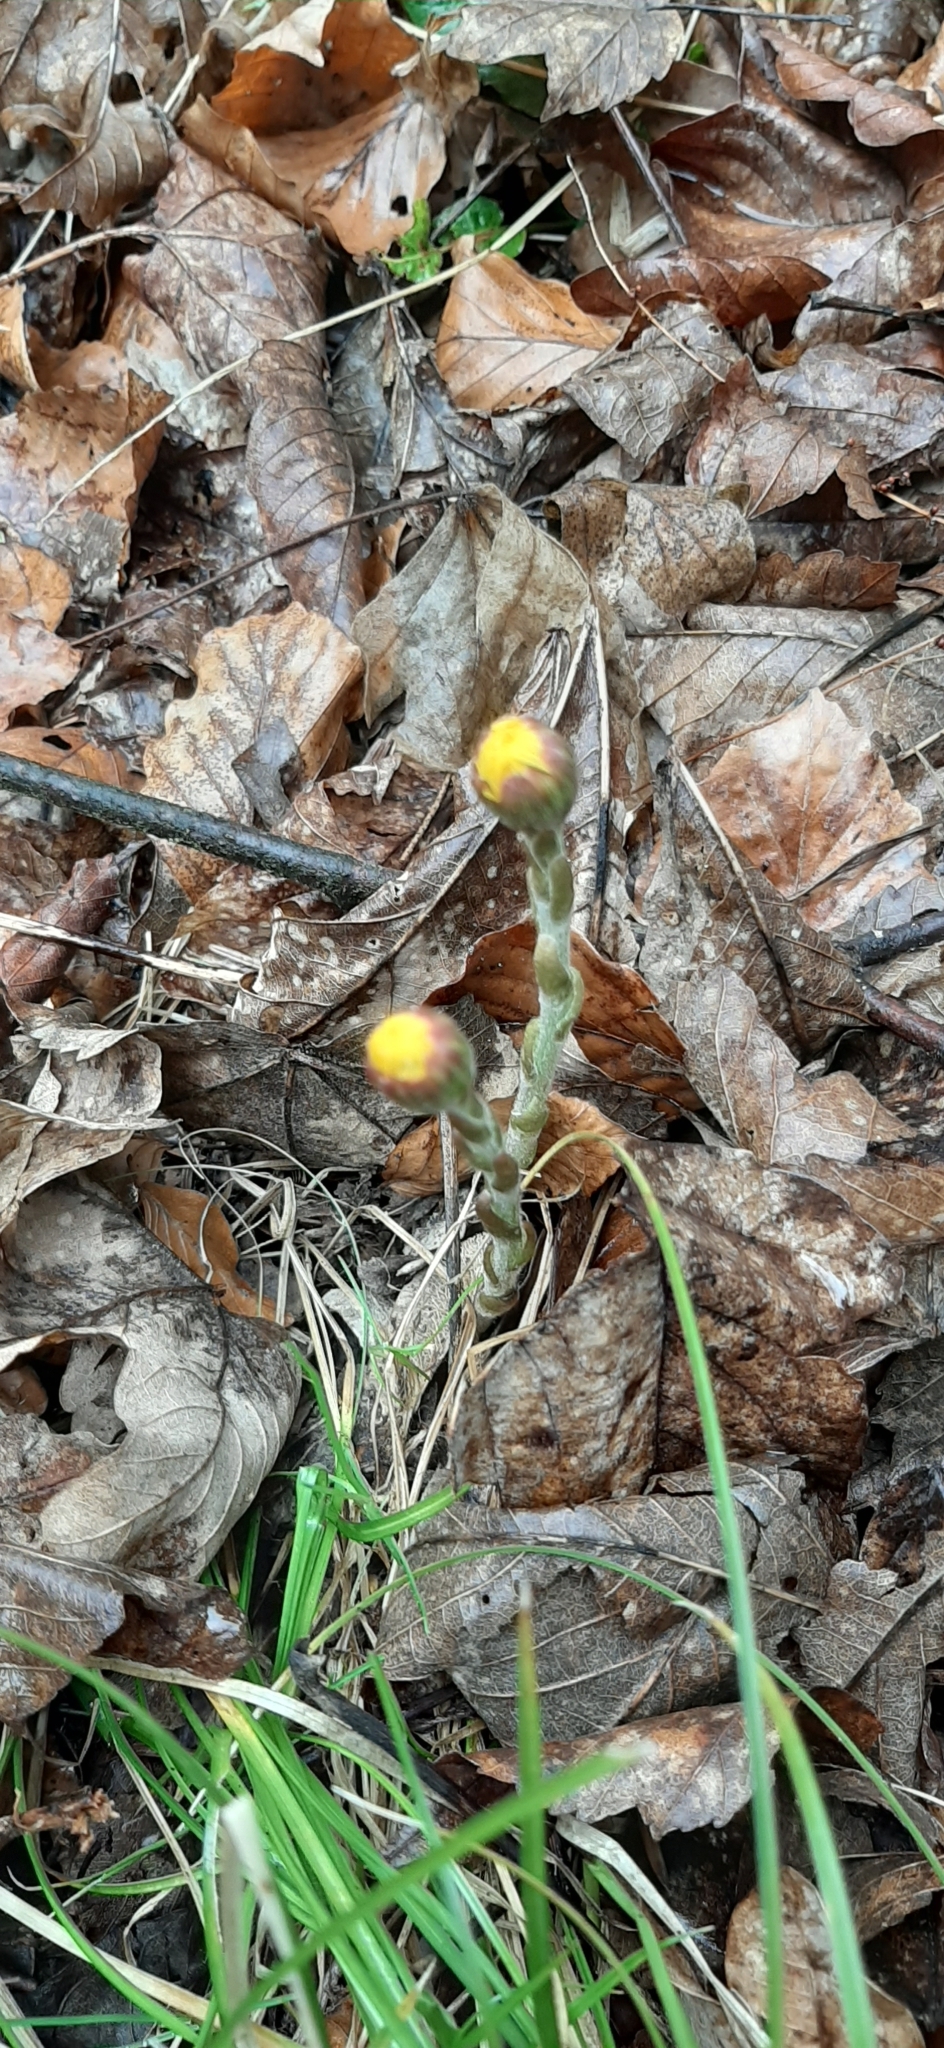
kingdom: Plantae
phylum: Tracheophyta
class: Magnoliopsida
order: Asterales
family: Asteraceae
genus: Tussilago
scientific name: Tussilago farfara
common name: Coltsfoot
